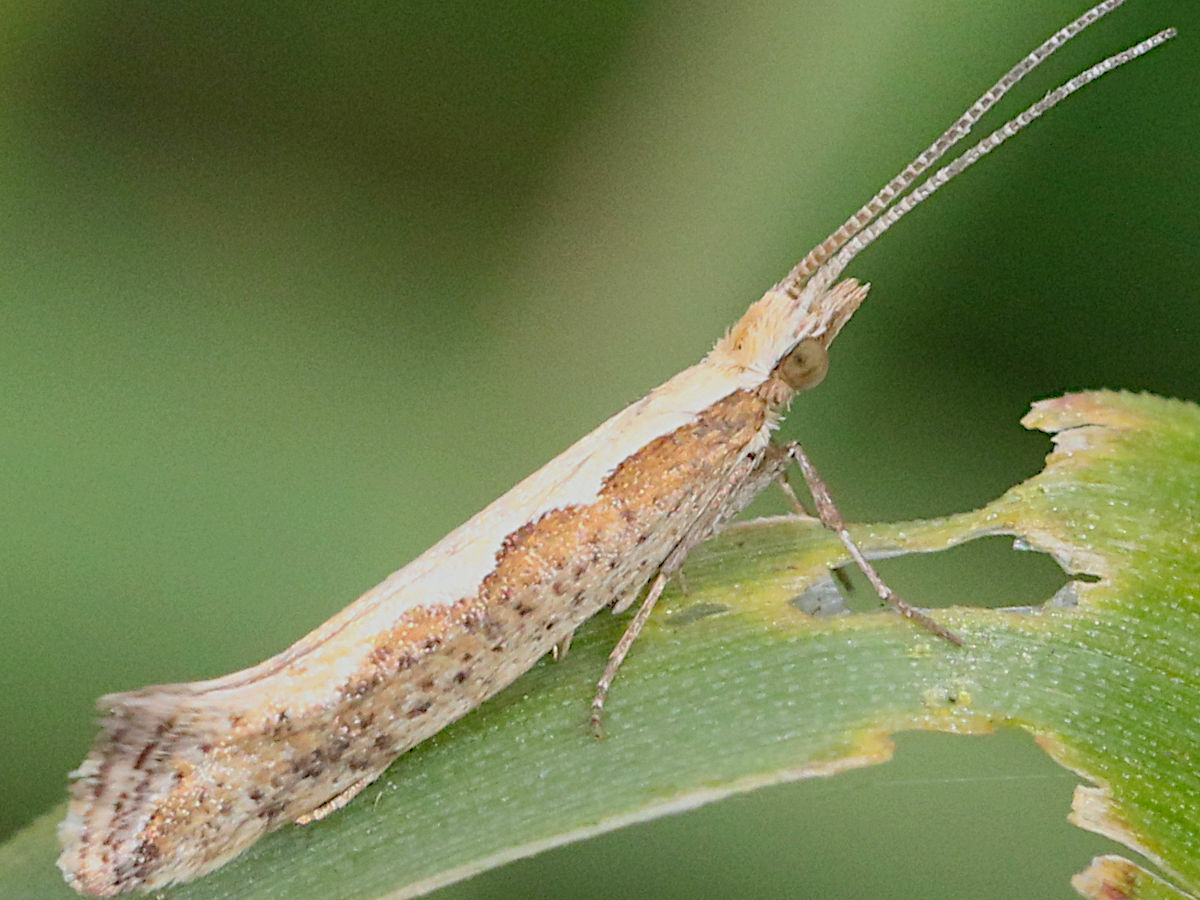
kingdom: Animalia
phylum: Arthropoda
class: Insecta
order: Lepidoptera
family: Plutellidae
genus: Plutella
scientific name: Plutella xylostella
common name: Diamond-back moth
